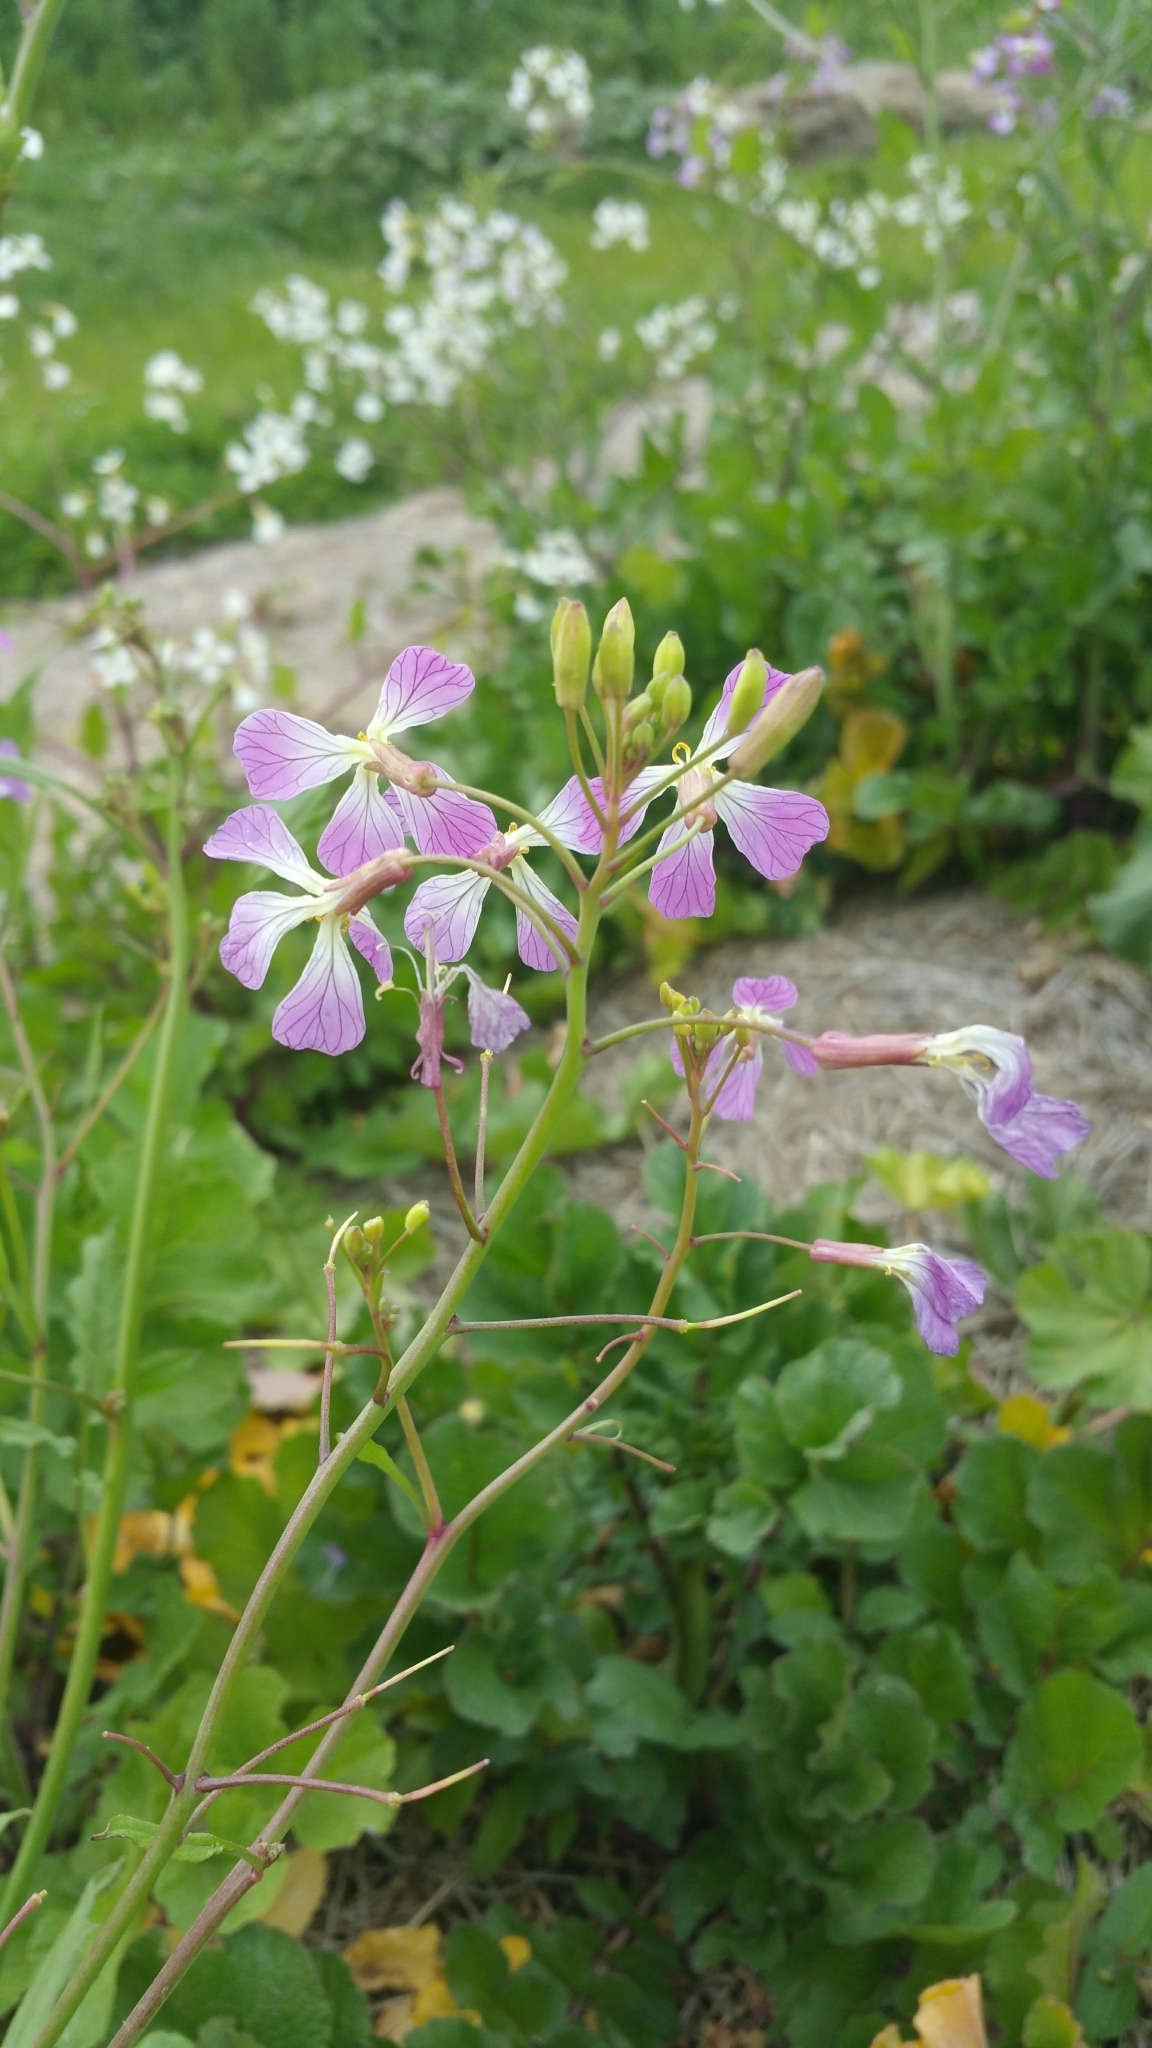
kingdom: Plantae
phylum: Tracheophyta
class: Magnoliopsida
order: Brassicales
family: Brassicaceae
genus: Raphanus
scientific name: Raphanus sativus
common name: Cultivated radish
